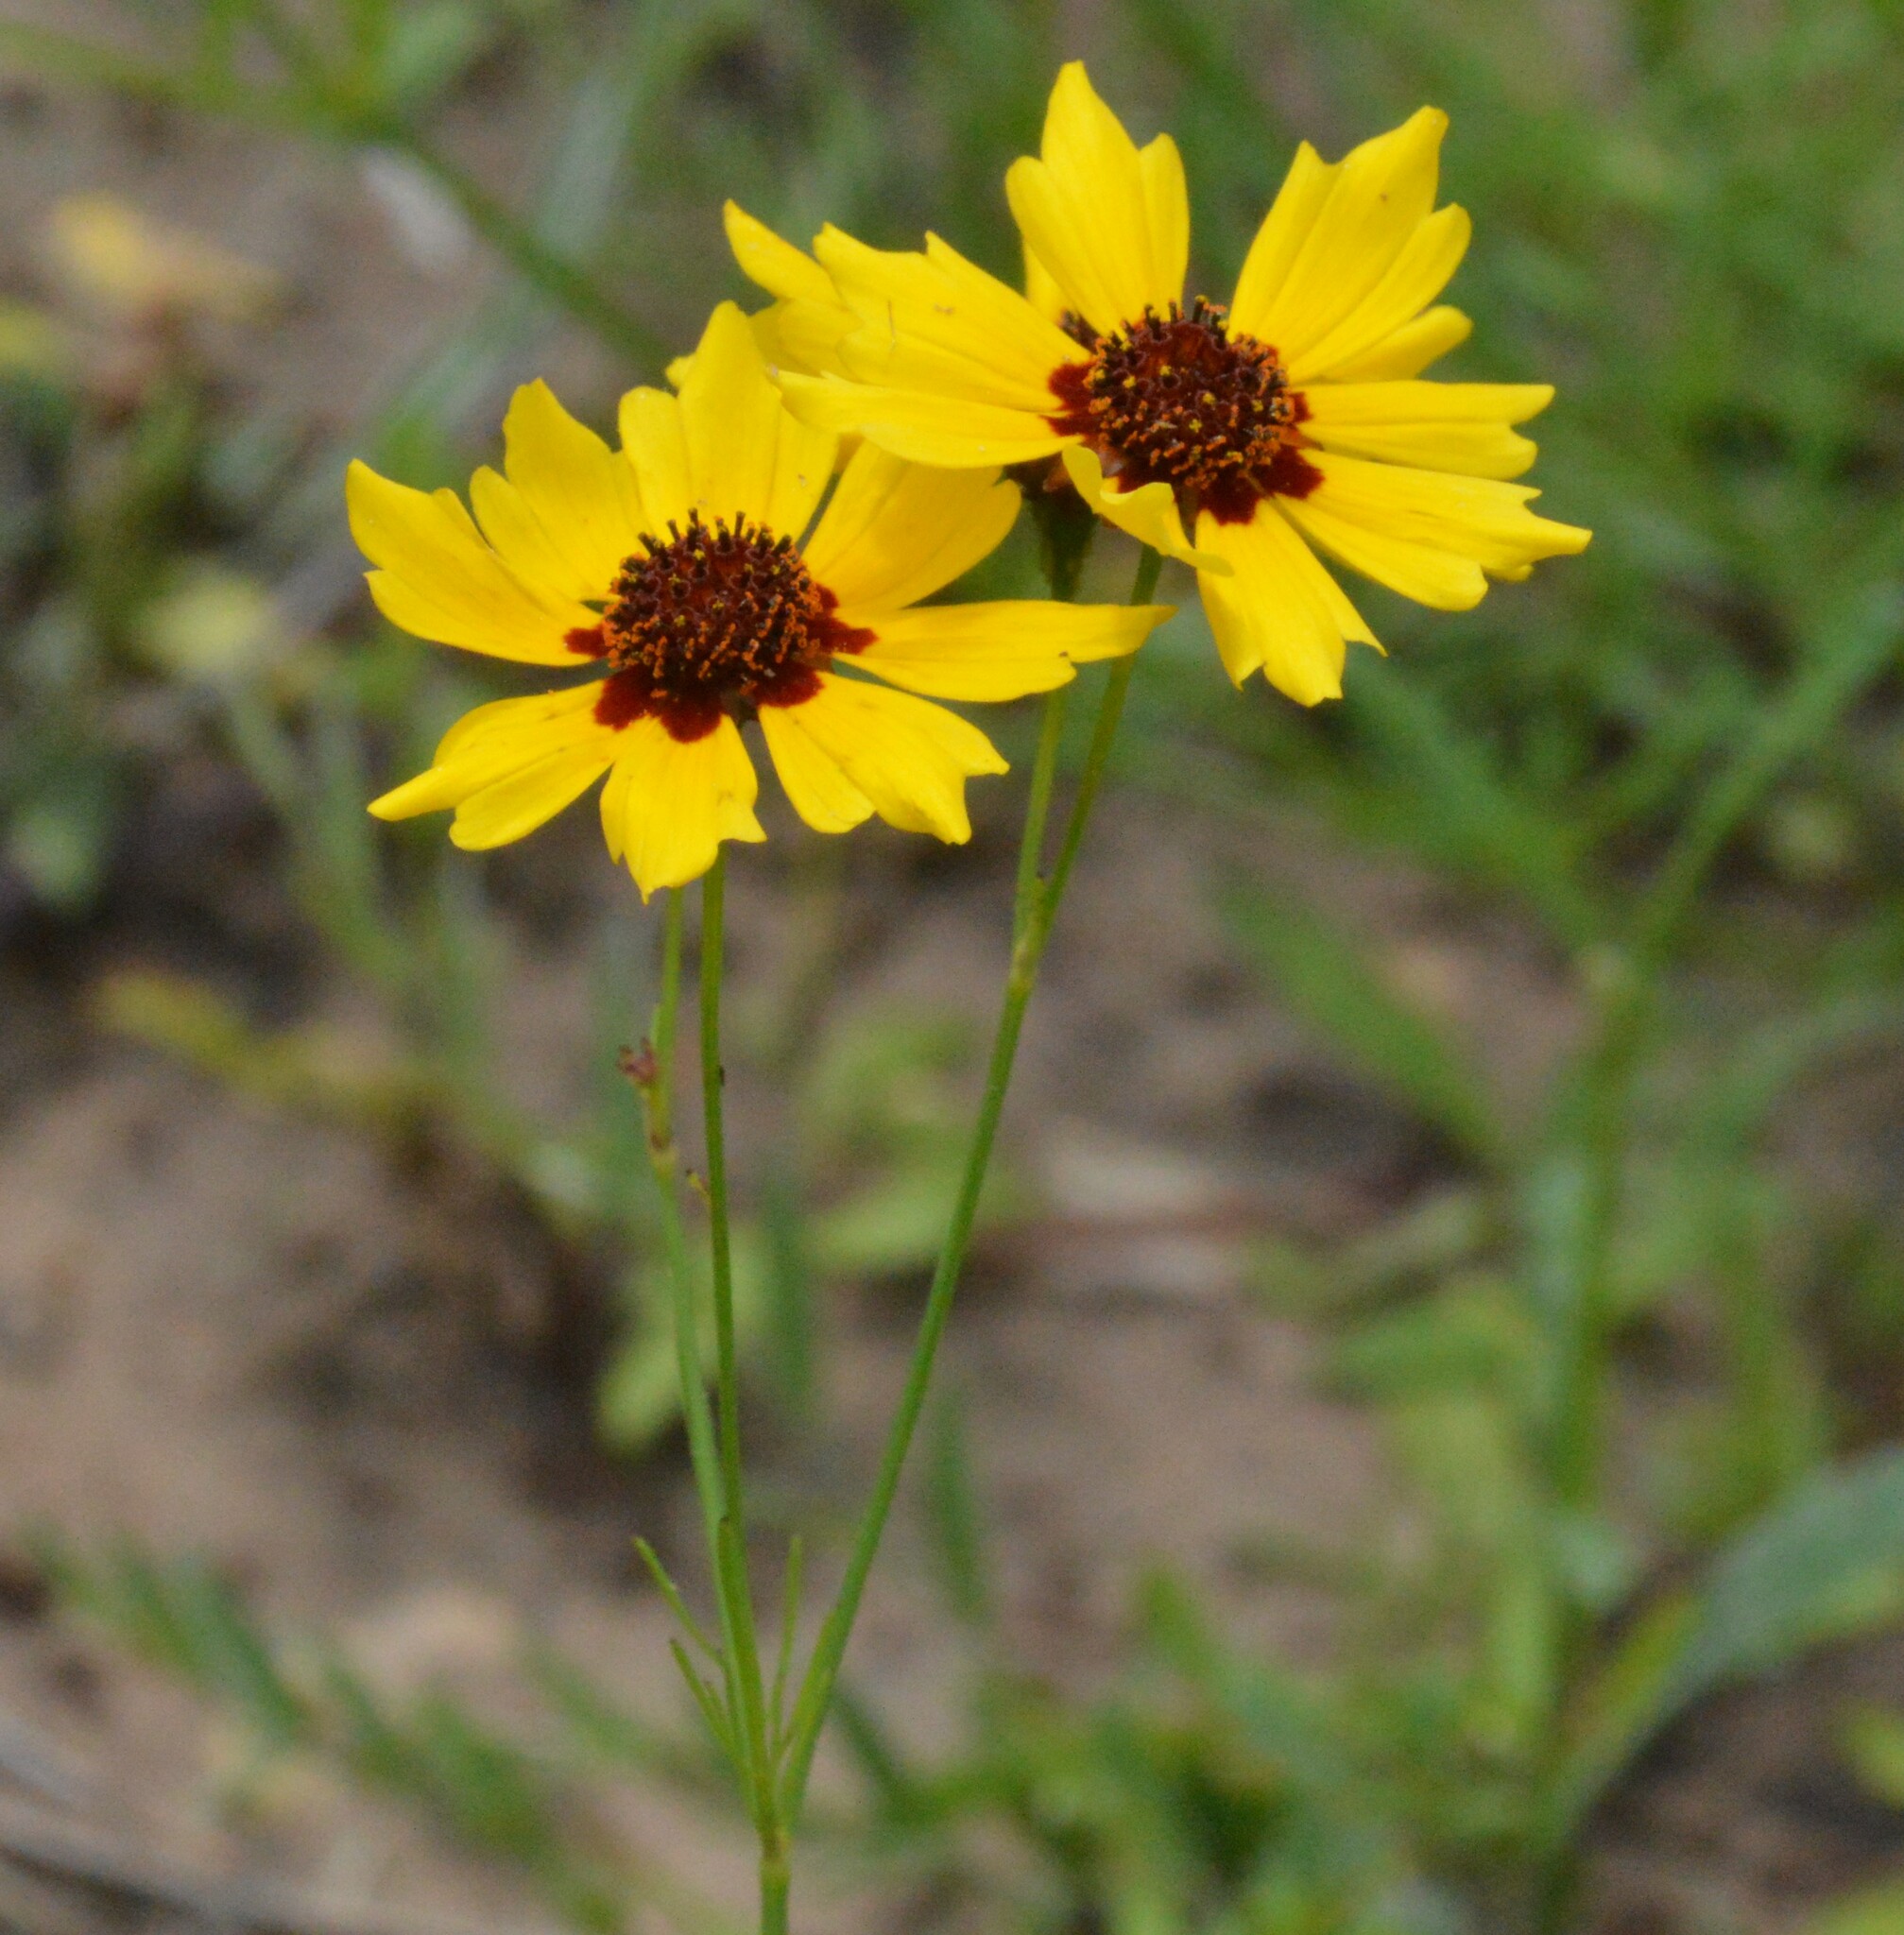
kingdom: Plantae
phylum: Tracheophyta
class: Magnoliopsida
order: Asterales
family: Asteraceae
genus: Coreopsis
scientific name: Coreopsis tinctoria
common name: Garden tickseed
